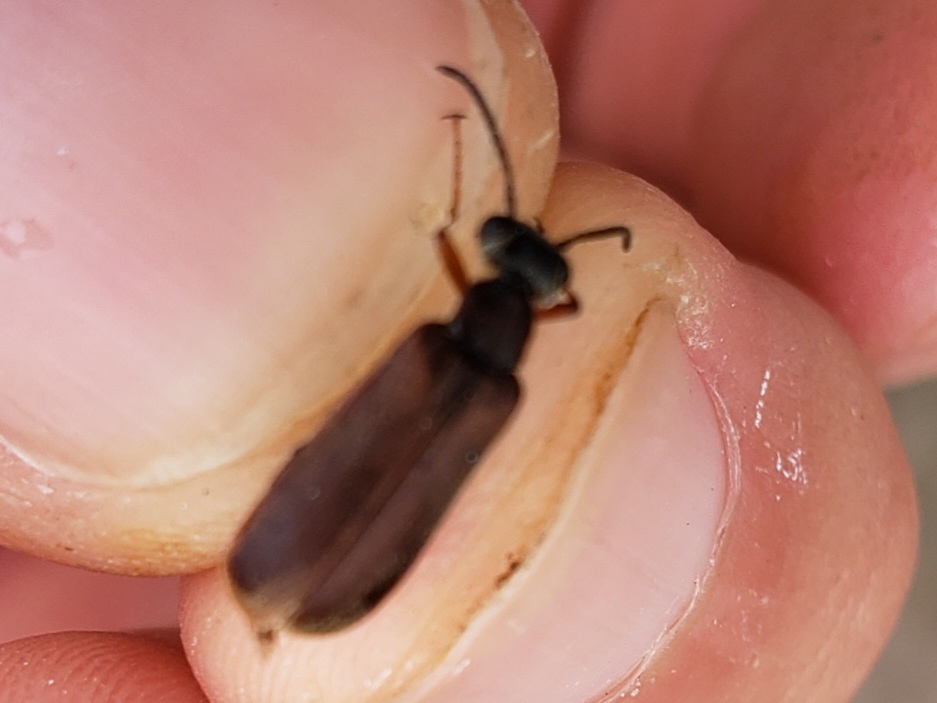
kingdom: Animalia
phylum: Arthropoda
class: Insecta
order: Coleoptera
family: Meloidae
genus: Epicauta
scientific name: Epicauta batesii
